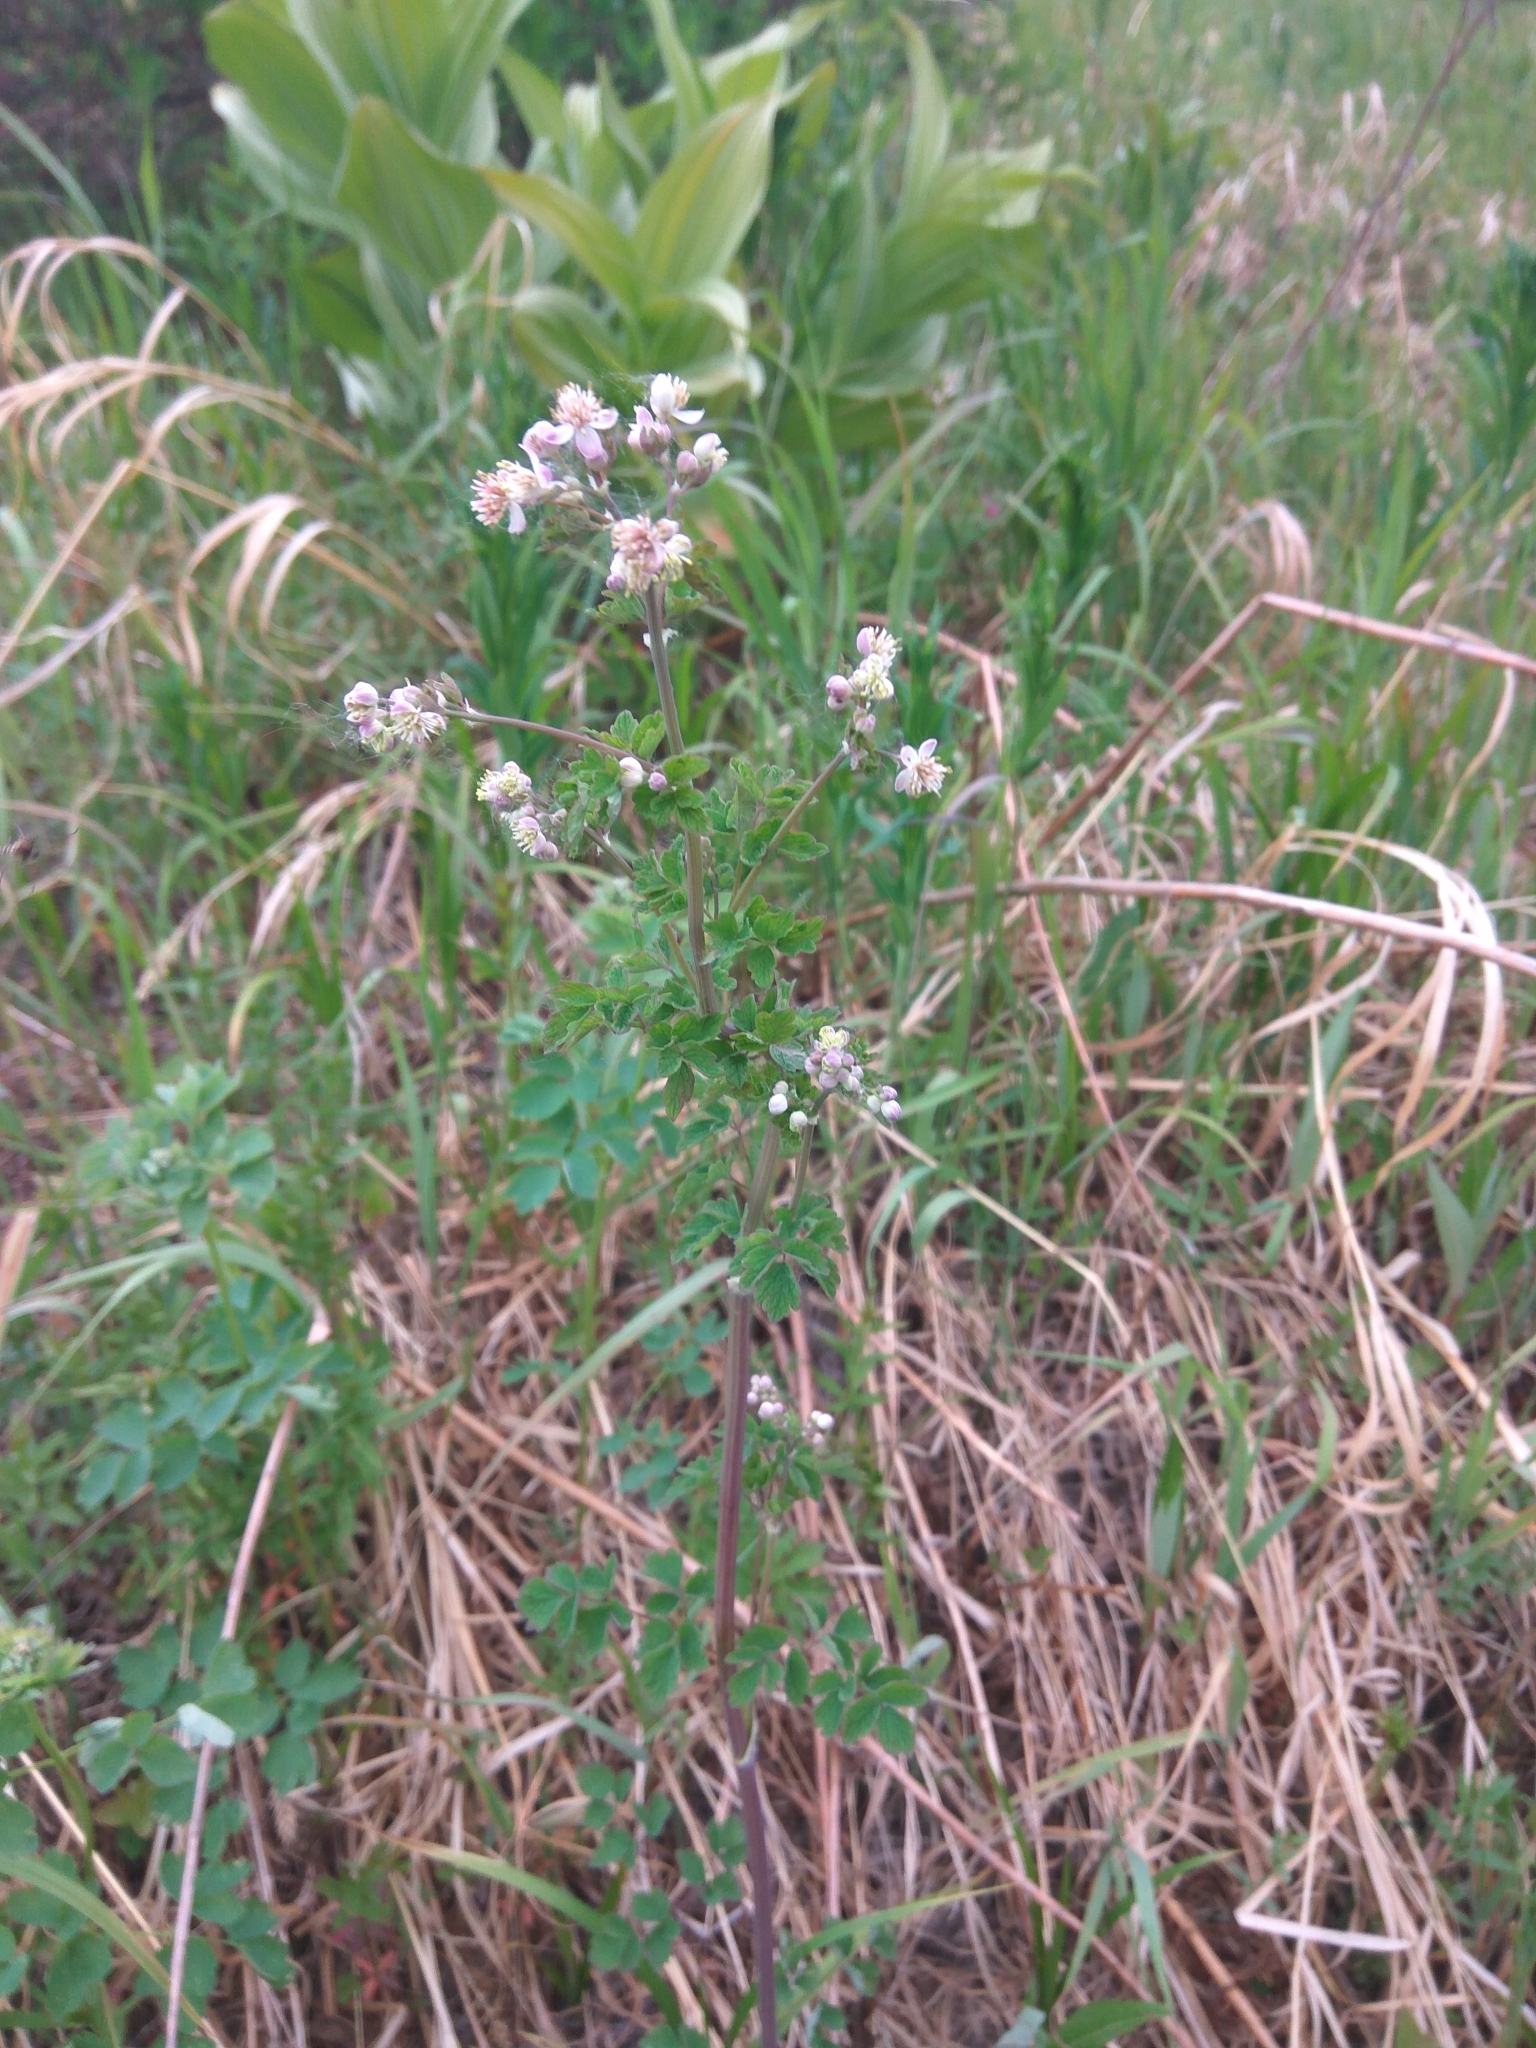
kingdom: Plantae
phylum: Tracheophyta
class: Magnoliopsida
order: Ranunculales
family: Ranunculaceae
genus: Thalictrum
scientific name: Thalictrum sparsiflorum
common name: Mountain meadow-rue
